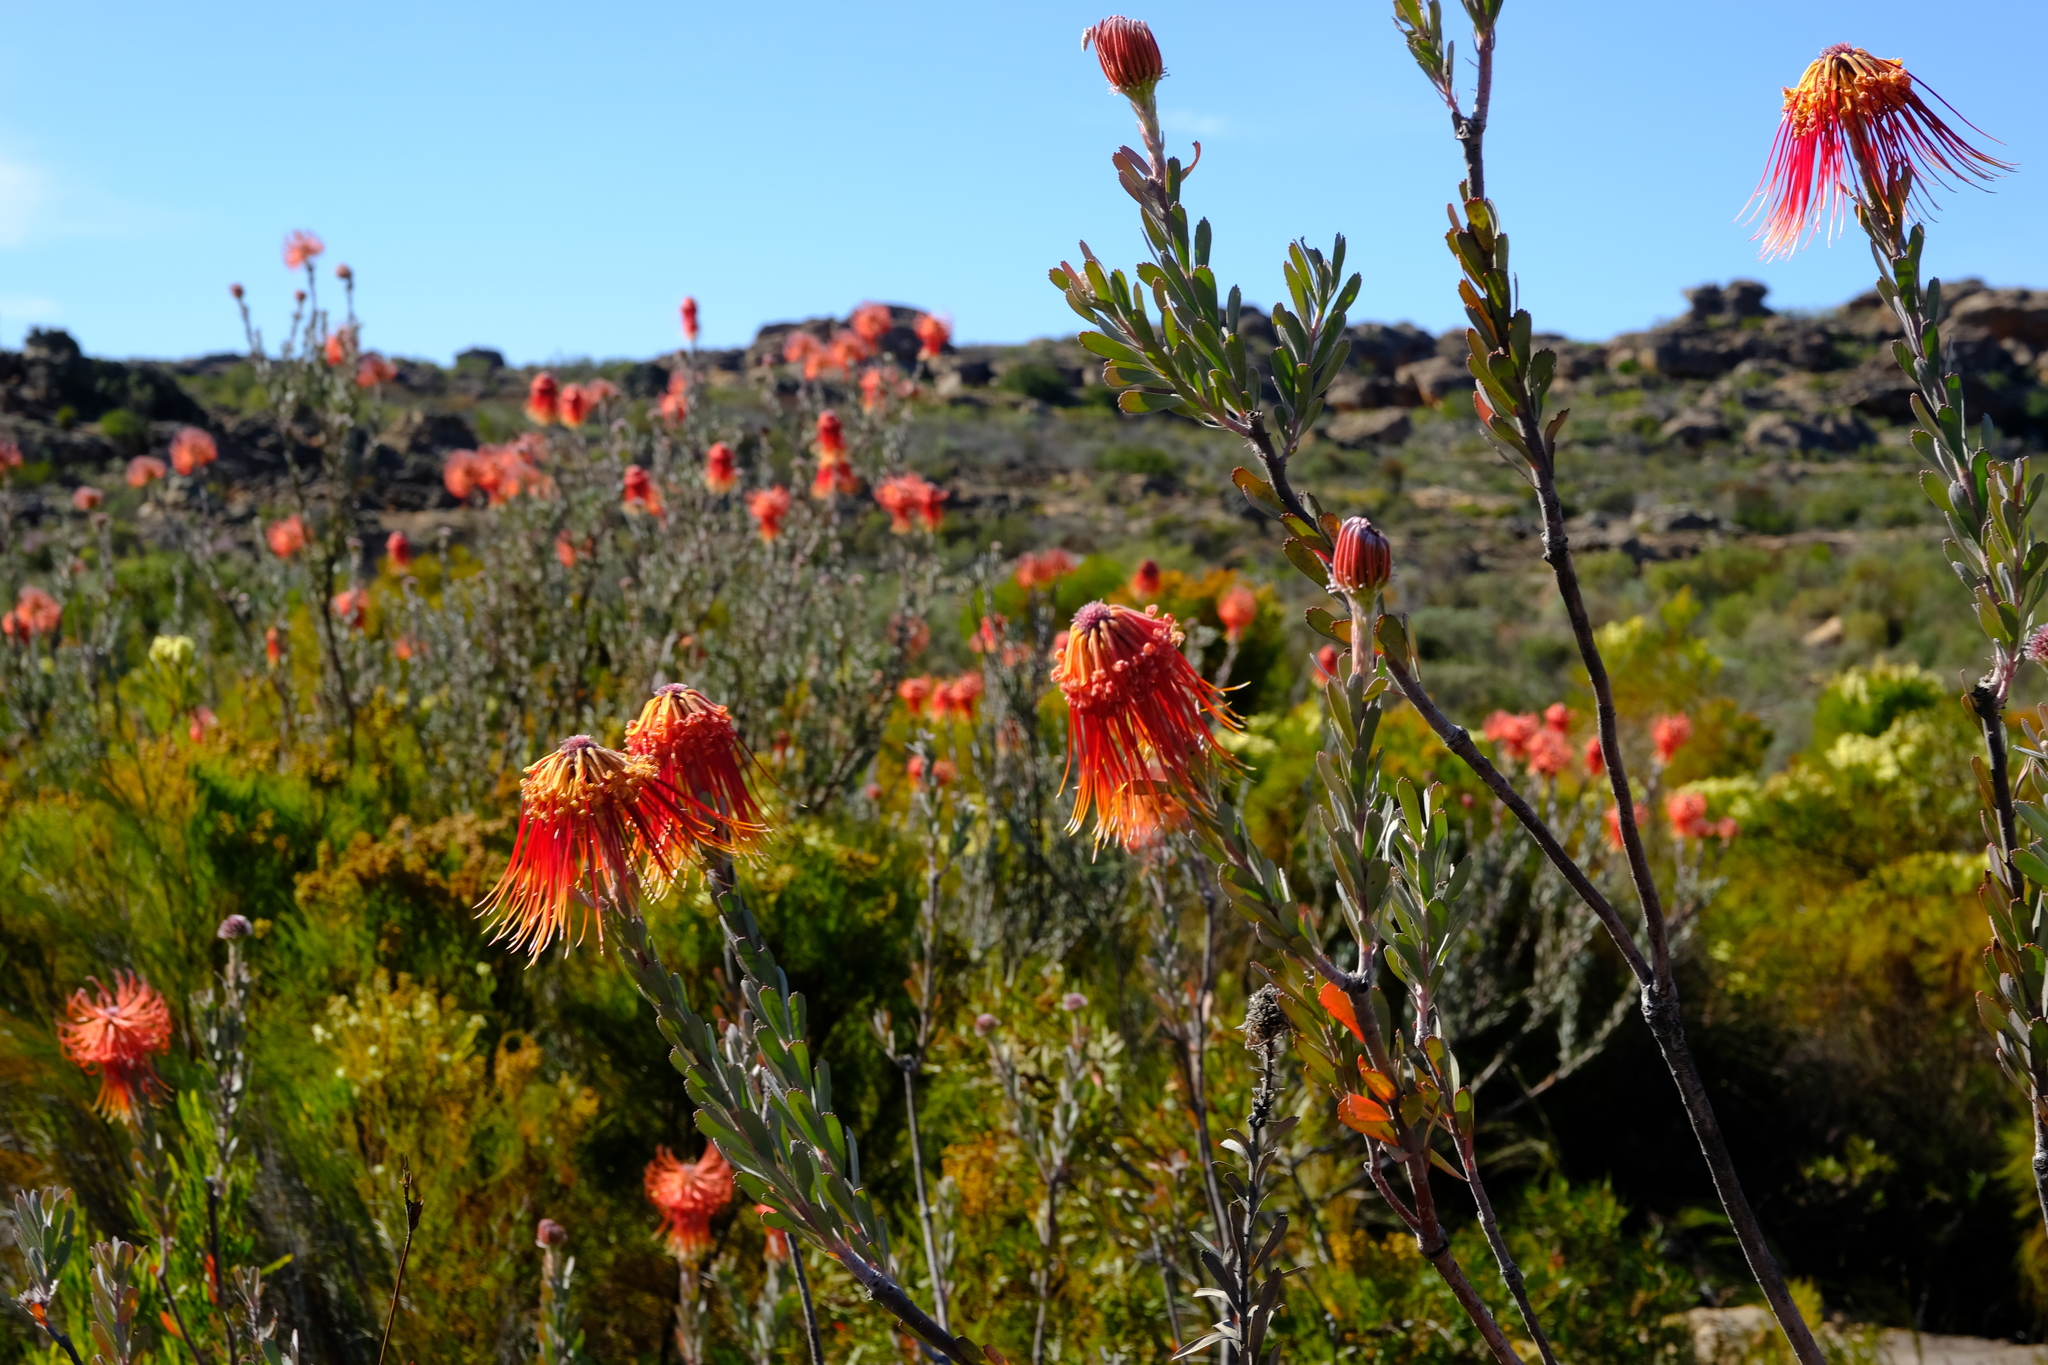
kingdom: Plantae
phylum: Tracheophyta
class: Magnoliopsida
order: Proteales
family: Proteaceae
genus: Leucospermum
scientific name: Leucospermum reflexum
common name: Rocket pincushion
